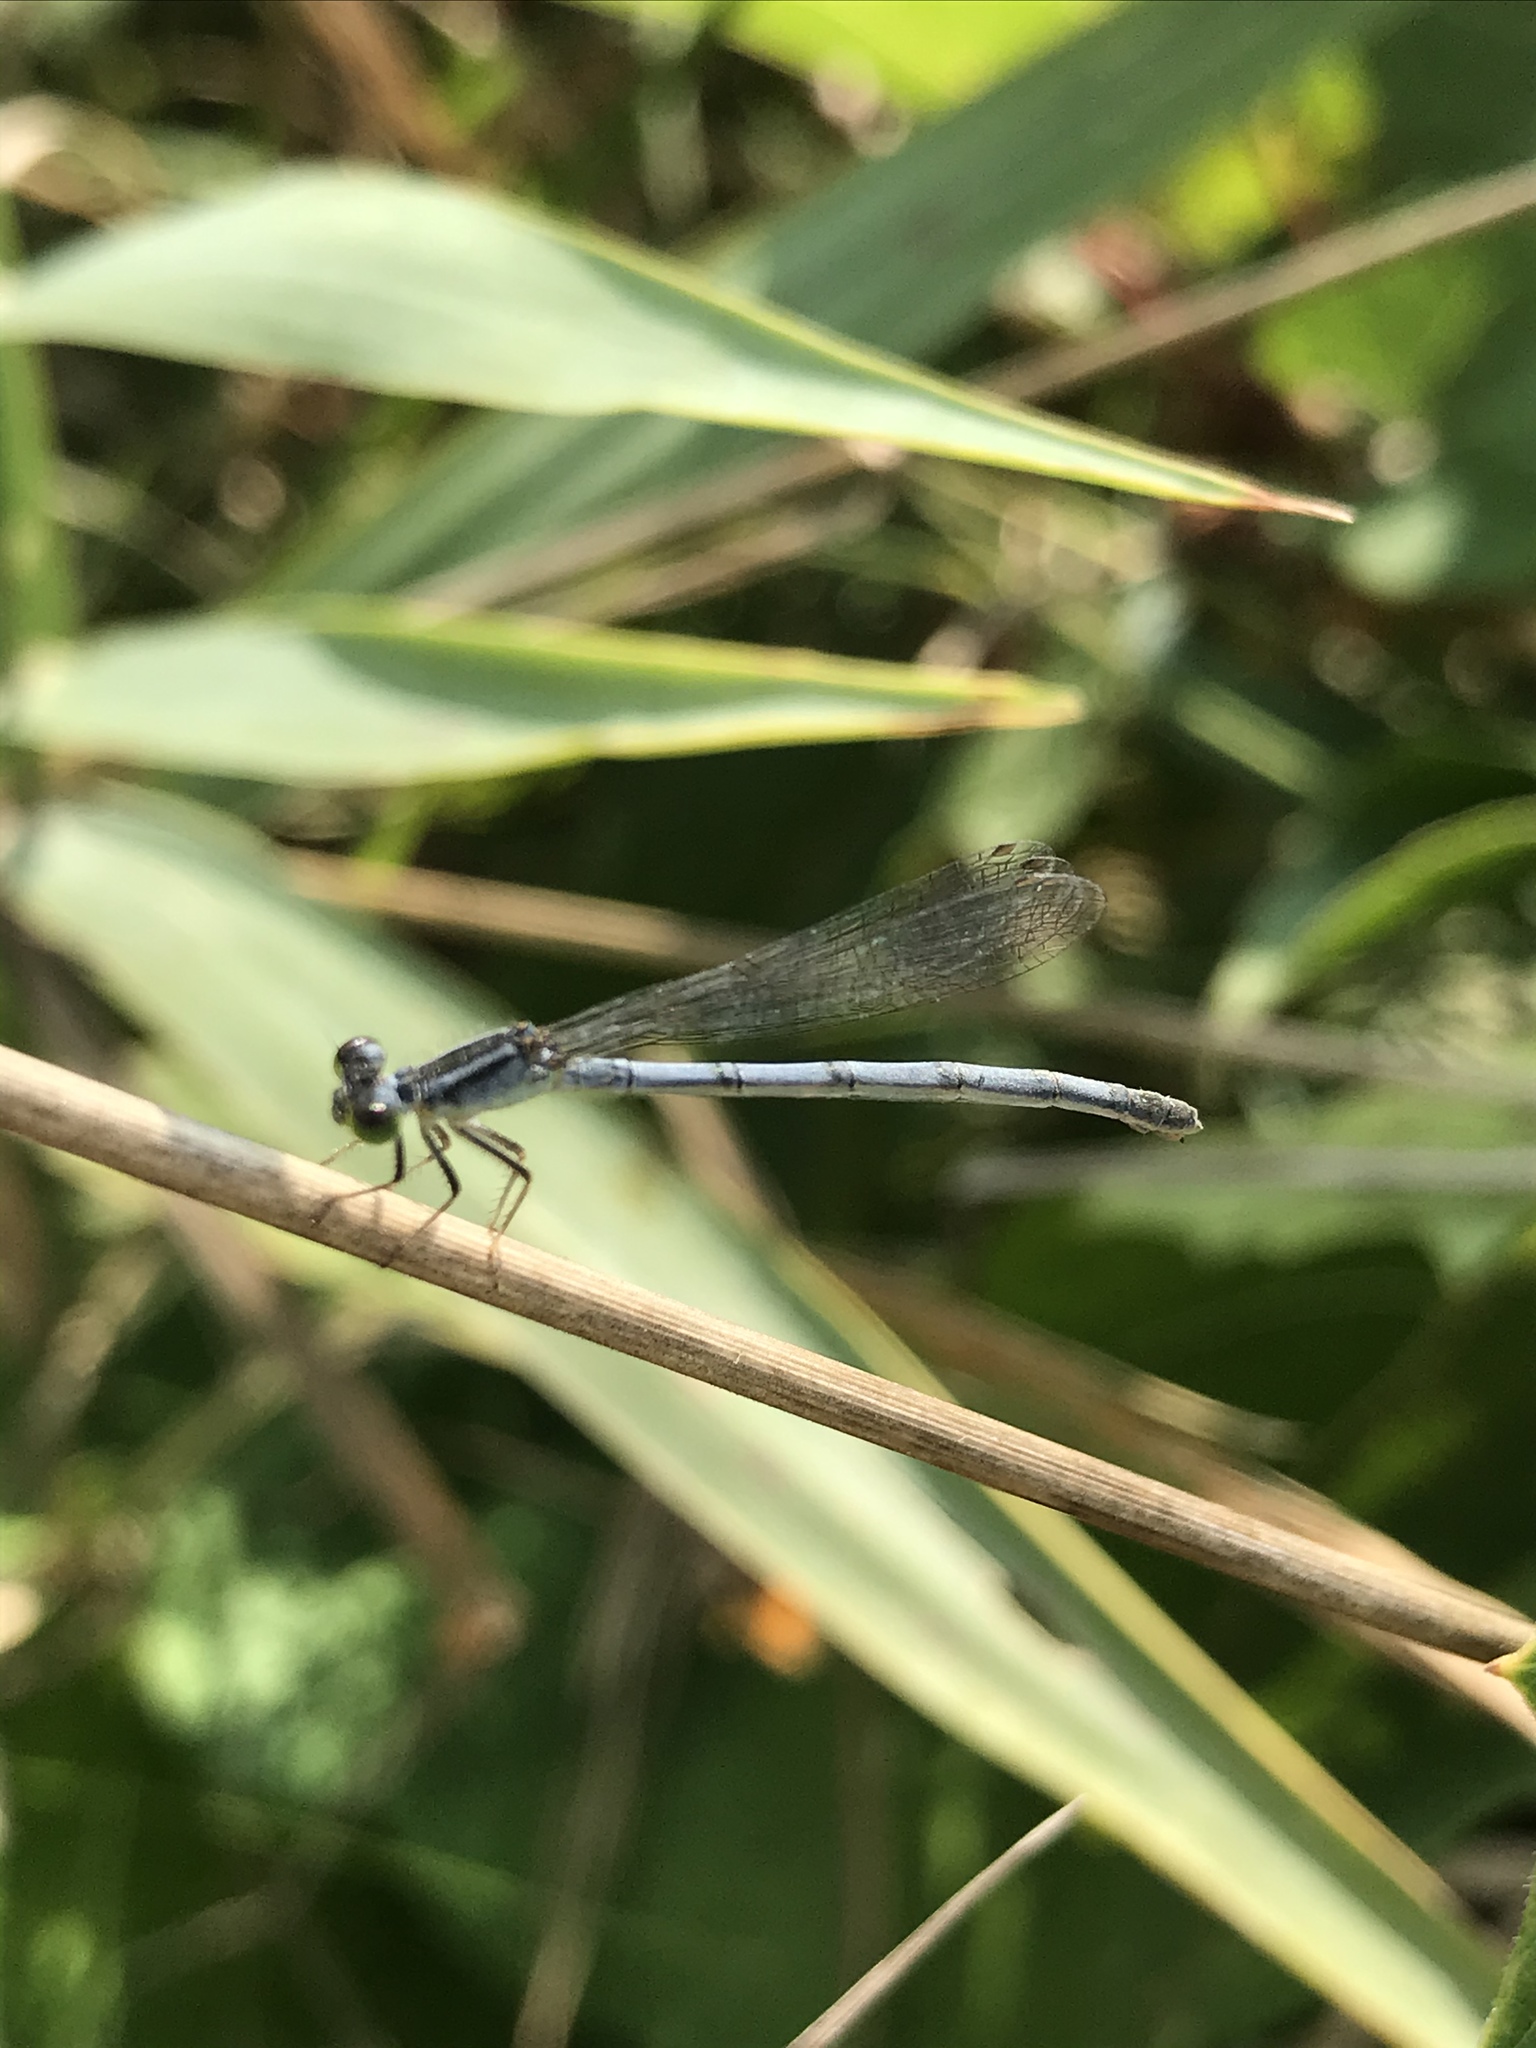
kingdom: Animalia
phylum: Arthropoda
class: Insecta
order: Odonata
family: Coenagrionidae
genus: Ischnura
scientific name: Ischnura verticalis
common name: Eastern forktail
